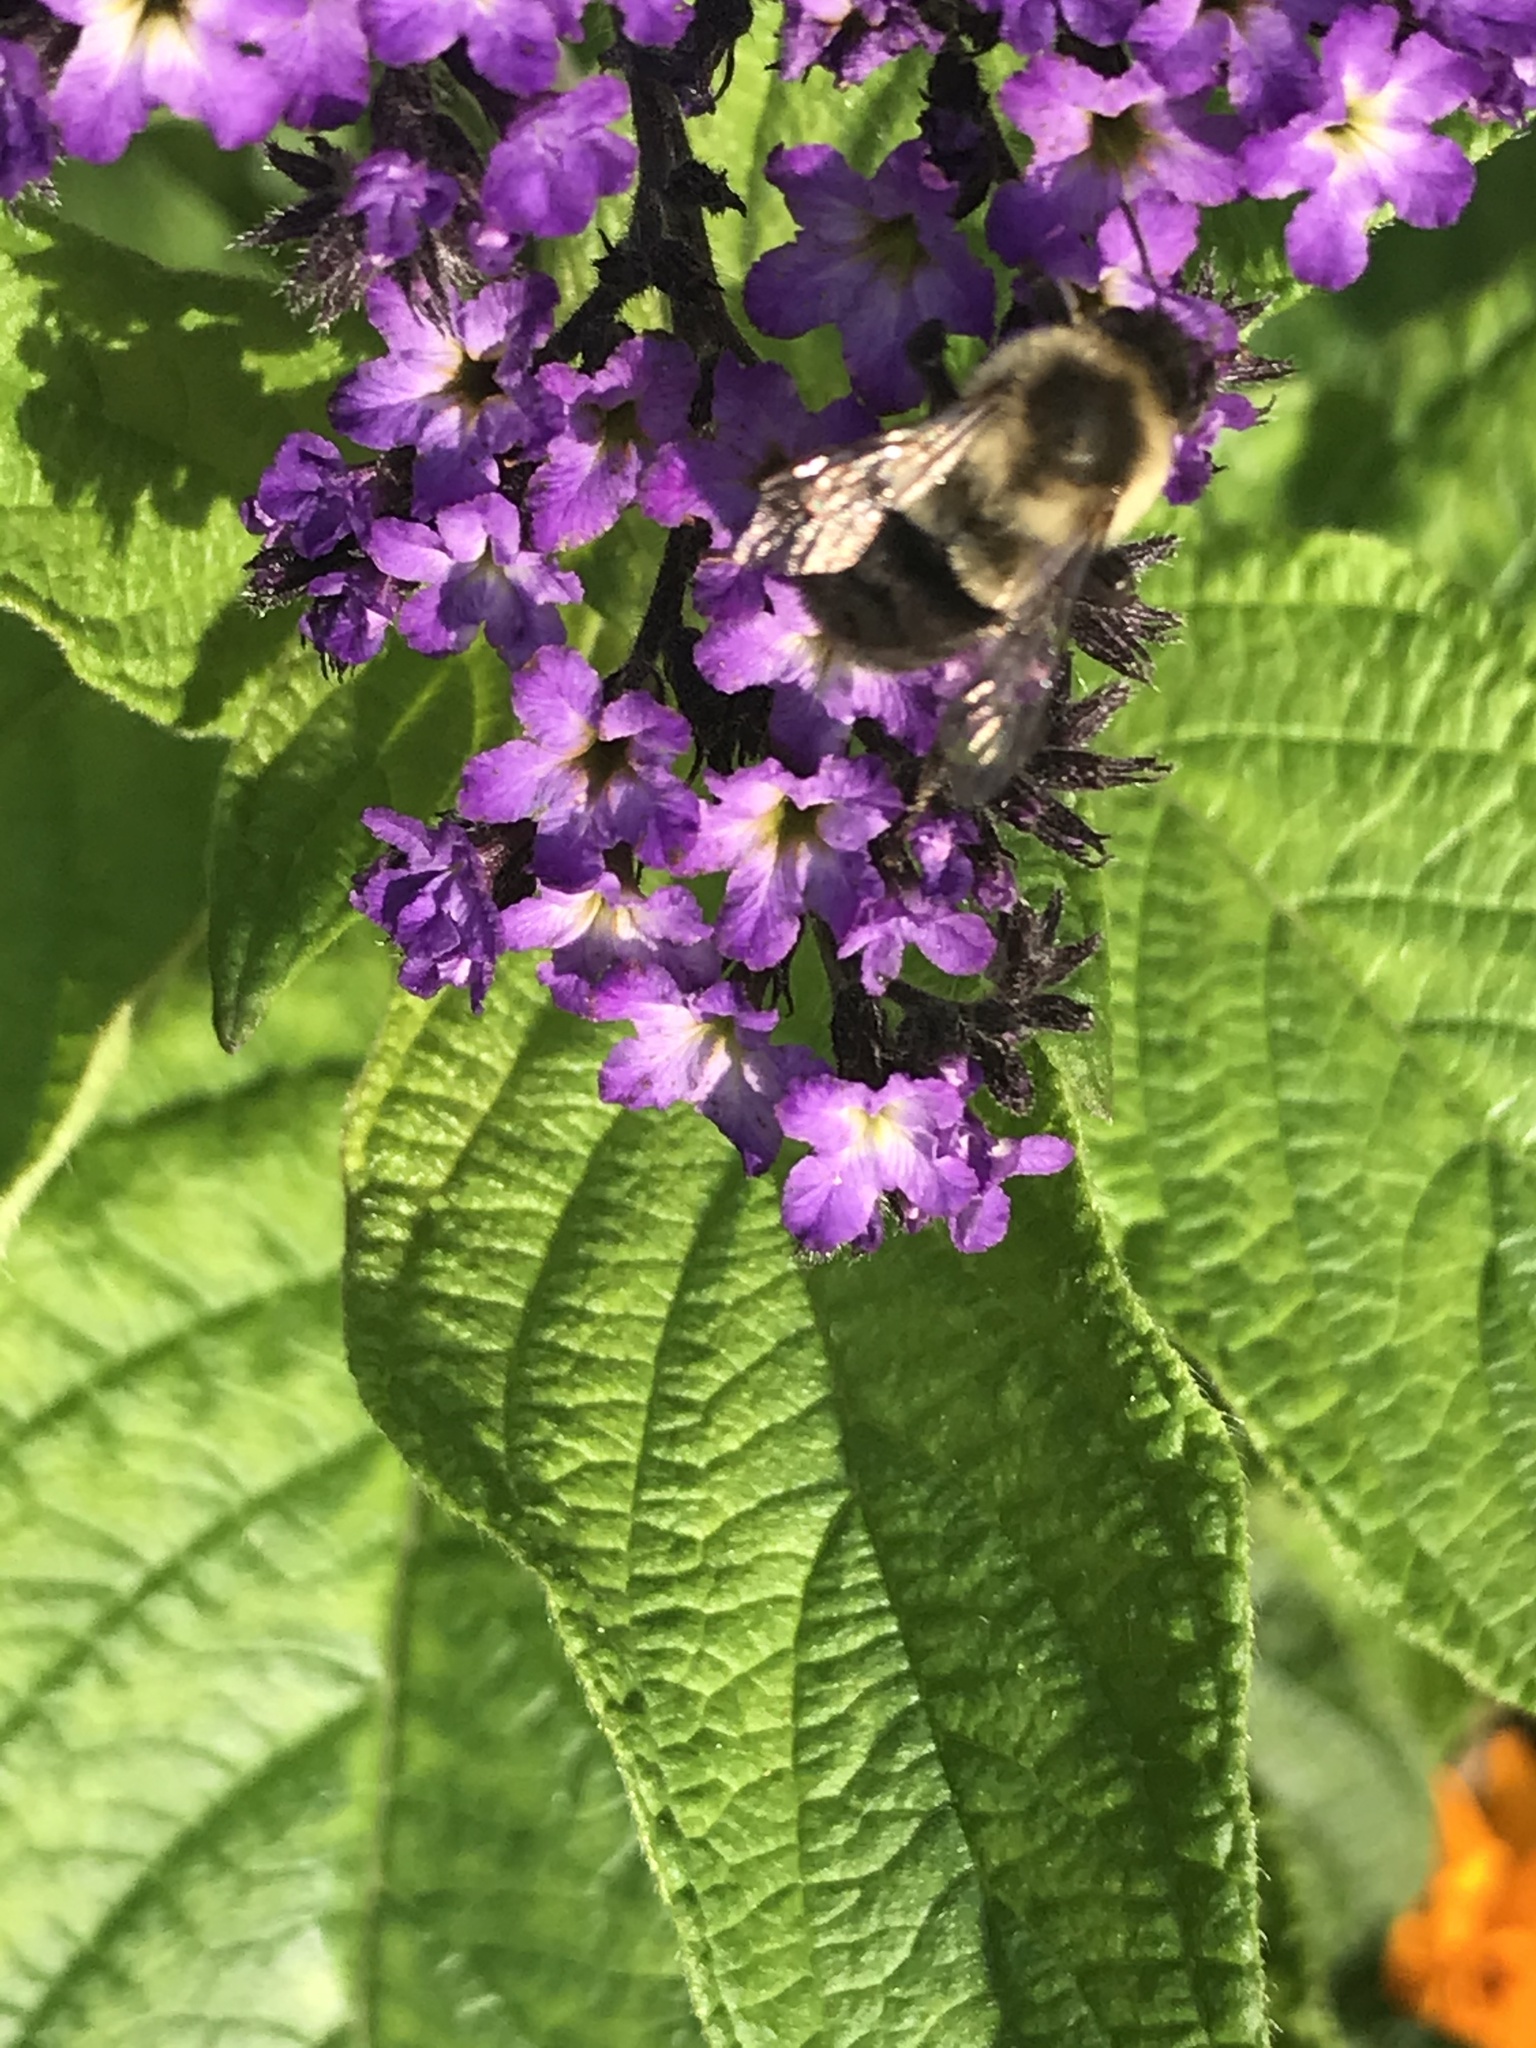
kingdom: Animalia
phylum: Arthropoda
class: Insecta
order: Hymenoptera
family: Apidae
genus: Bombus
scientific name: Bombus impatiens
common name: Common eastern bumble bee
